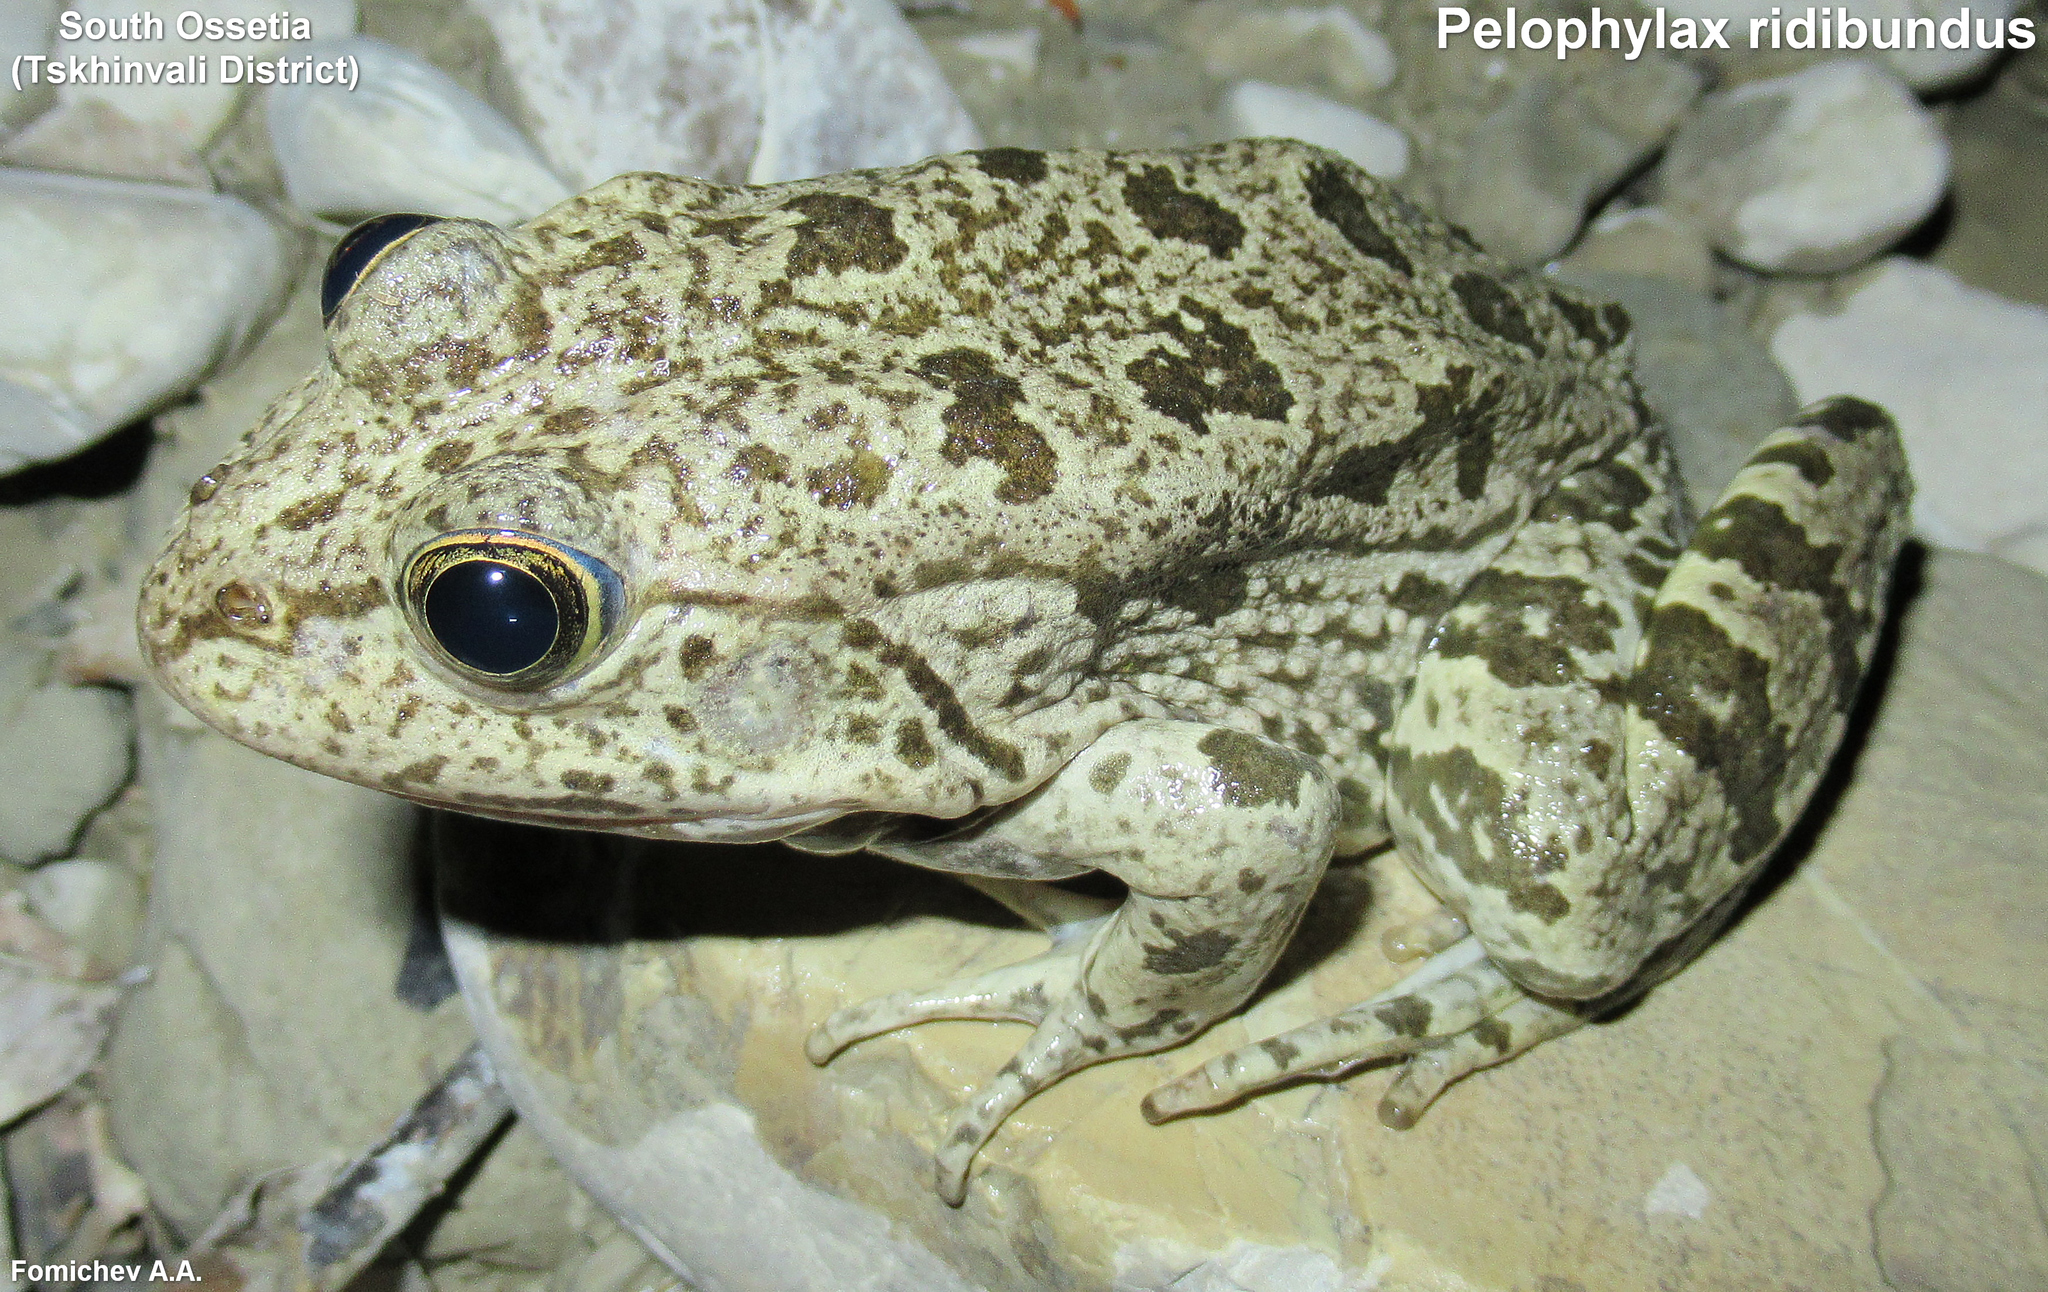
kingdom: Animalia
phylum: Chordata
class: Amphibia
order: Anura
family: Ranidae
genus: Pelophylax
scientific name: Pelophylax ridibundus
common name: Marsh frog
